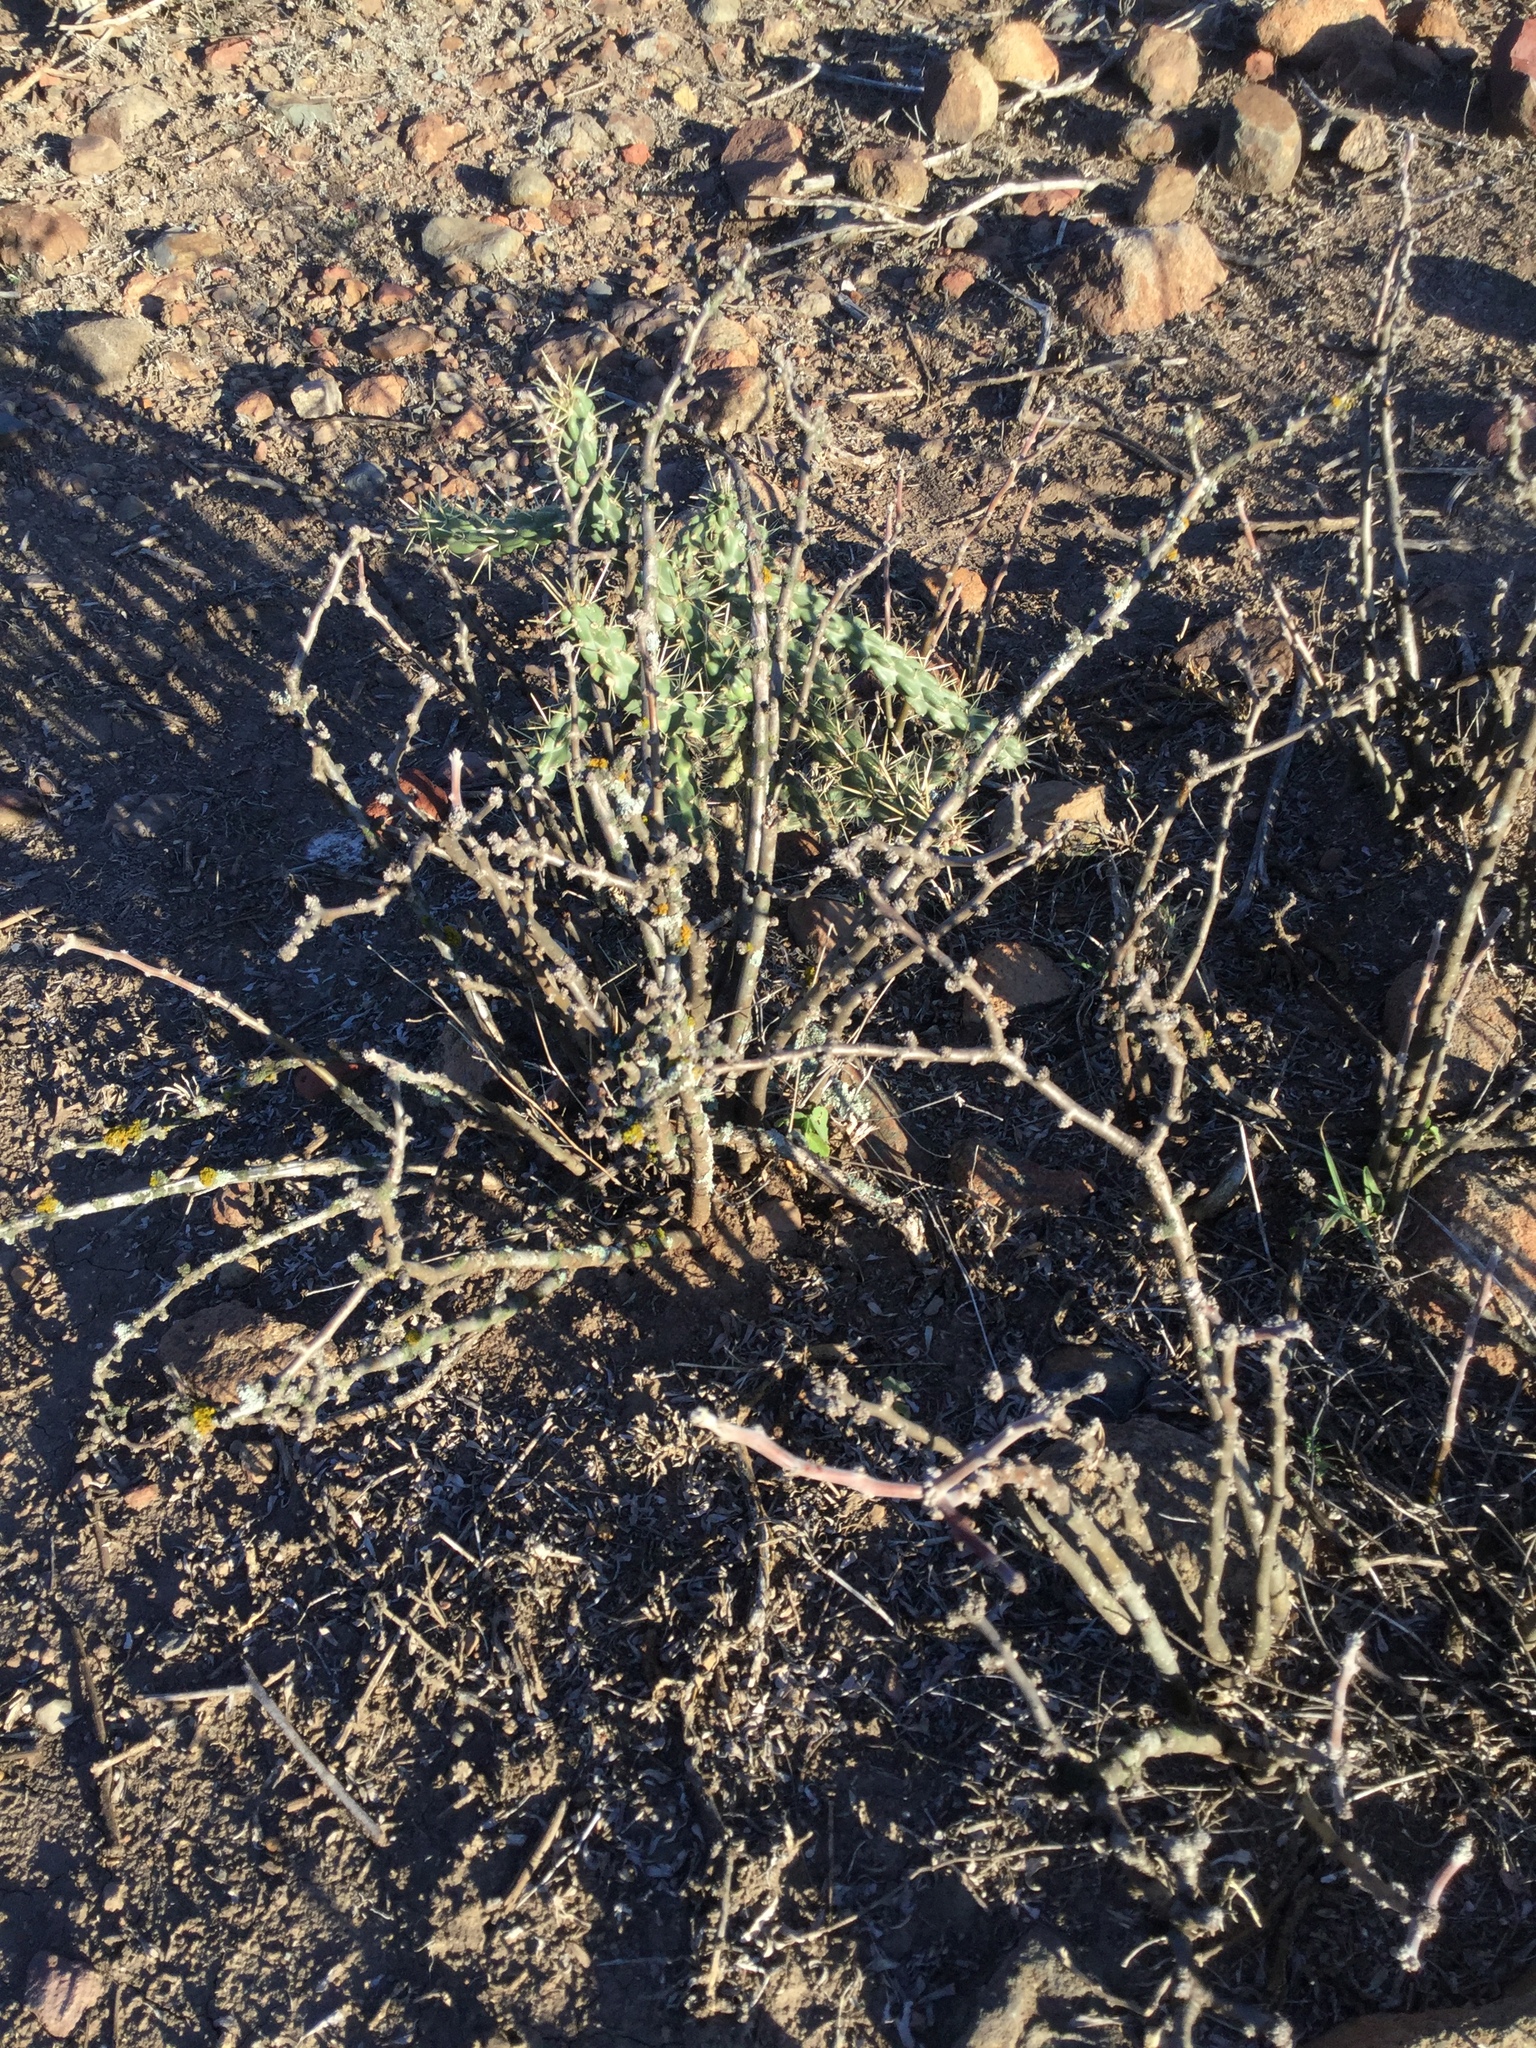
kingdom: Plantae
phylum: Tracheophyta
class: Magnoliopsida
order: Malpighiales
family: Euphorbiaceae
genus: Jatropha
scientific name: Jatropha dioica
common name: Leatherstem
